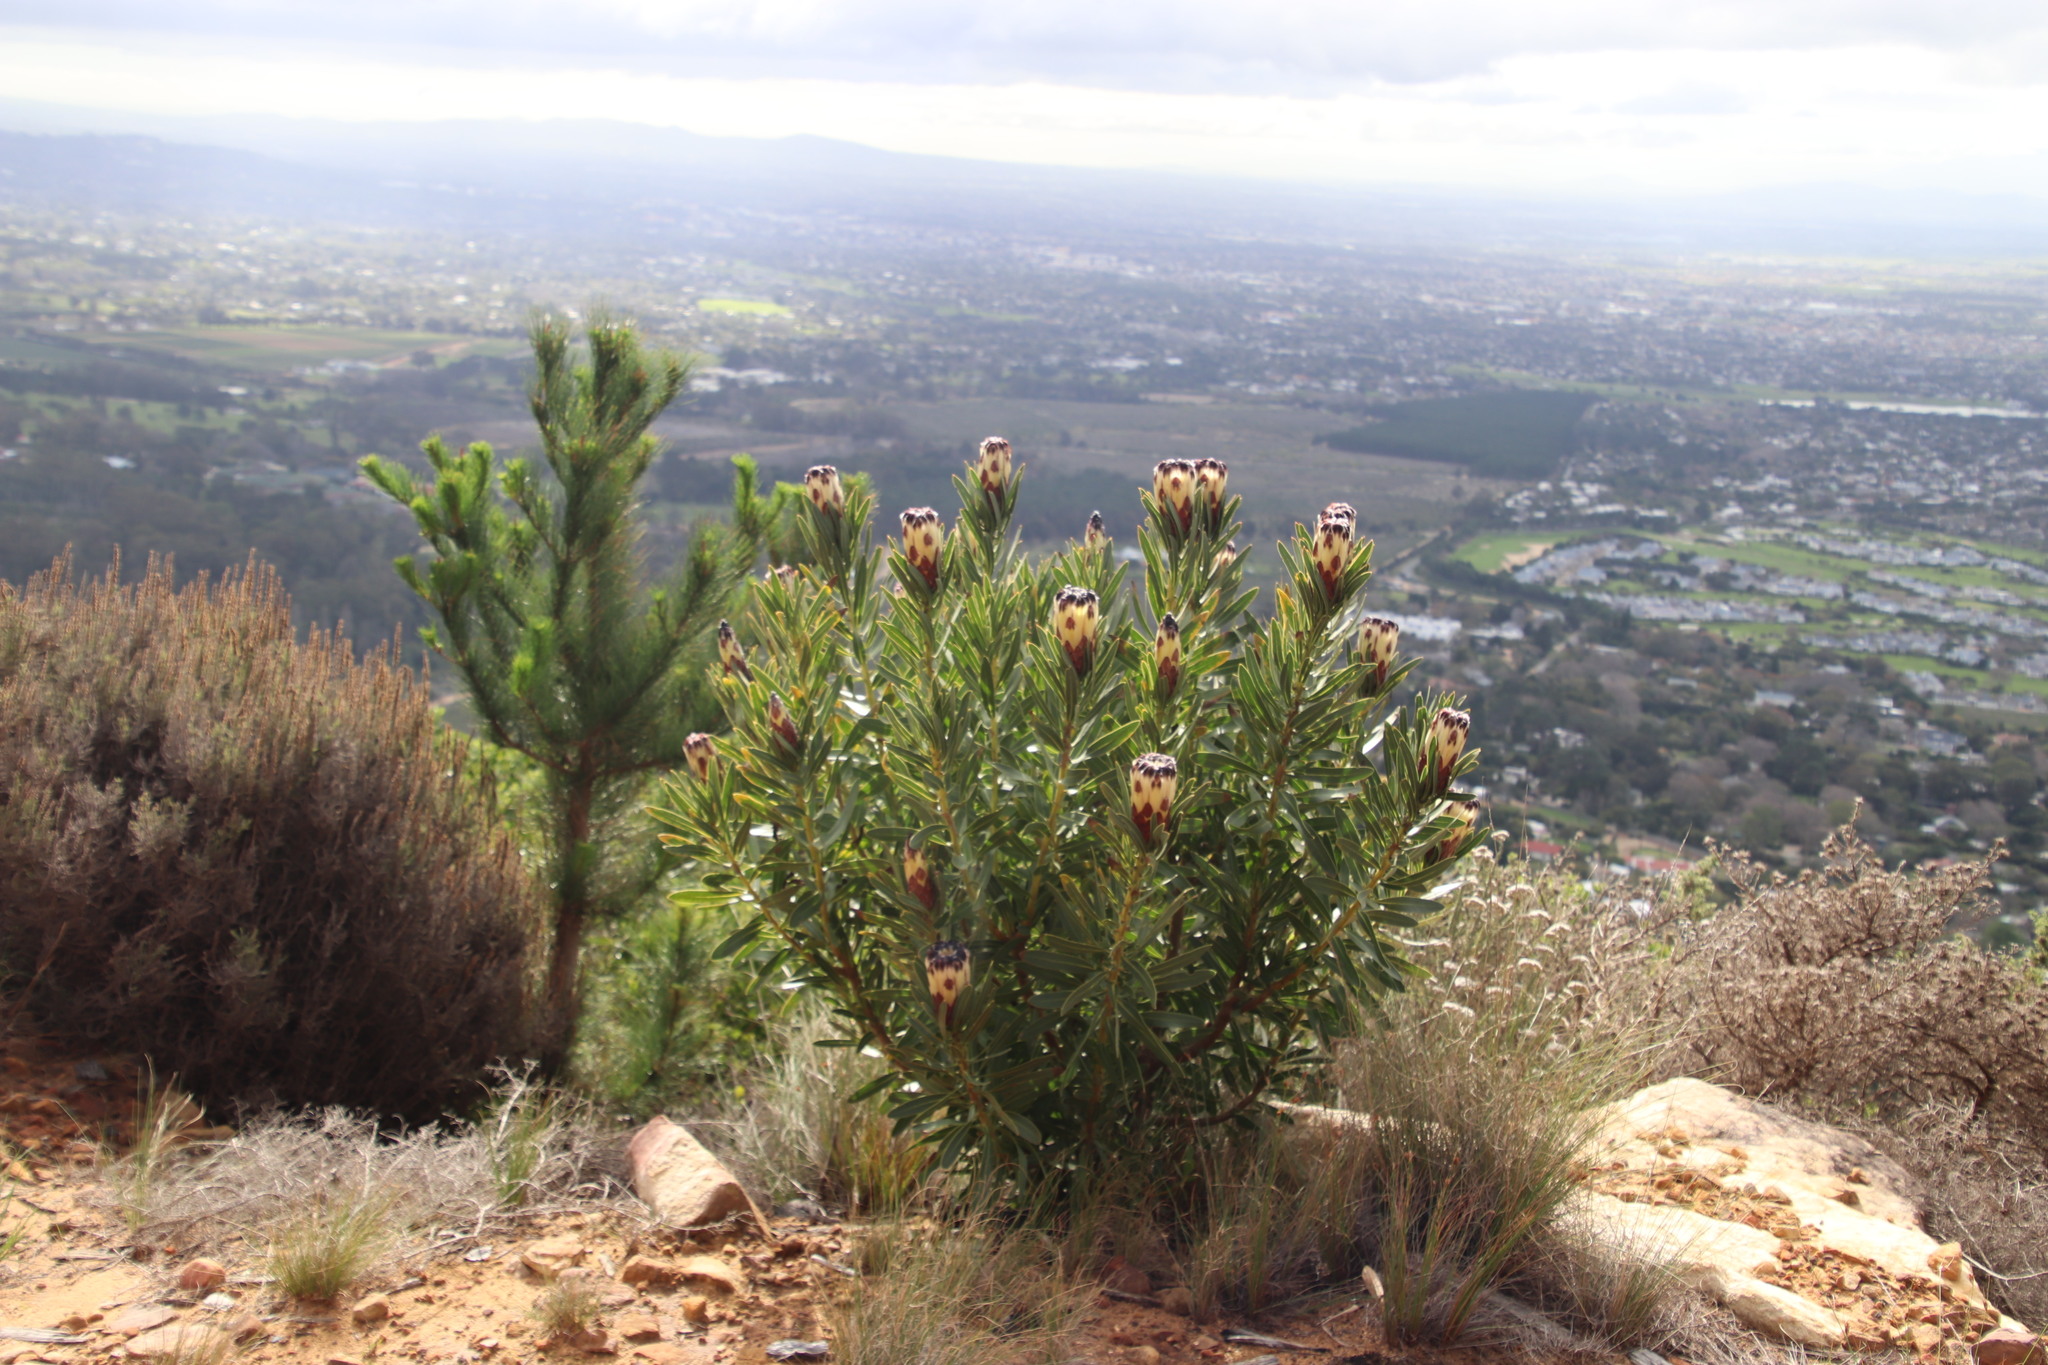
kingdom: Plantae
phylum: Tracheophyta
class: Magnoliopsida
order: Proteales
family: Proteaceae
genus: Protea
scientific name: Protea lepidocarpodendron
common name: Black-bearded protea
